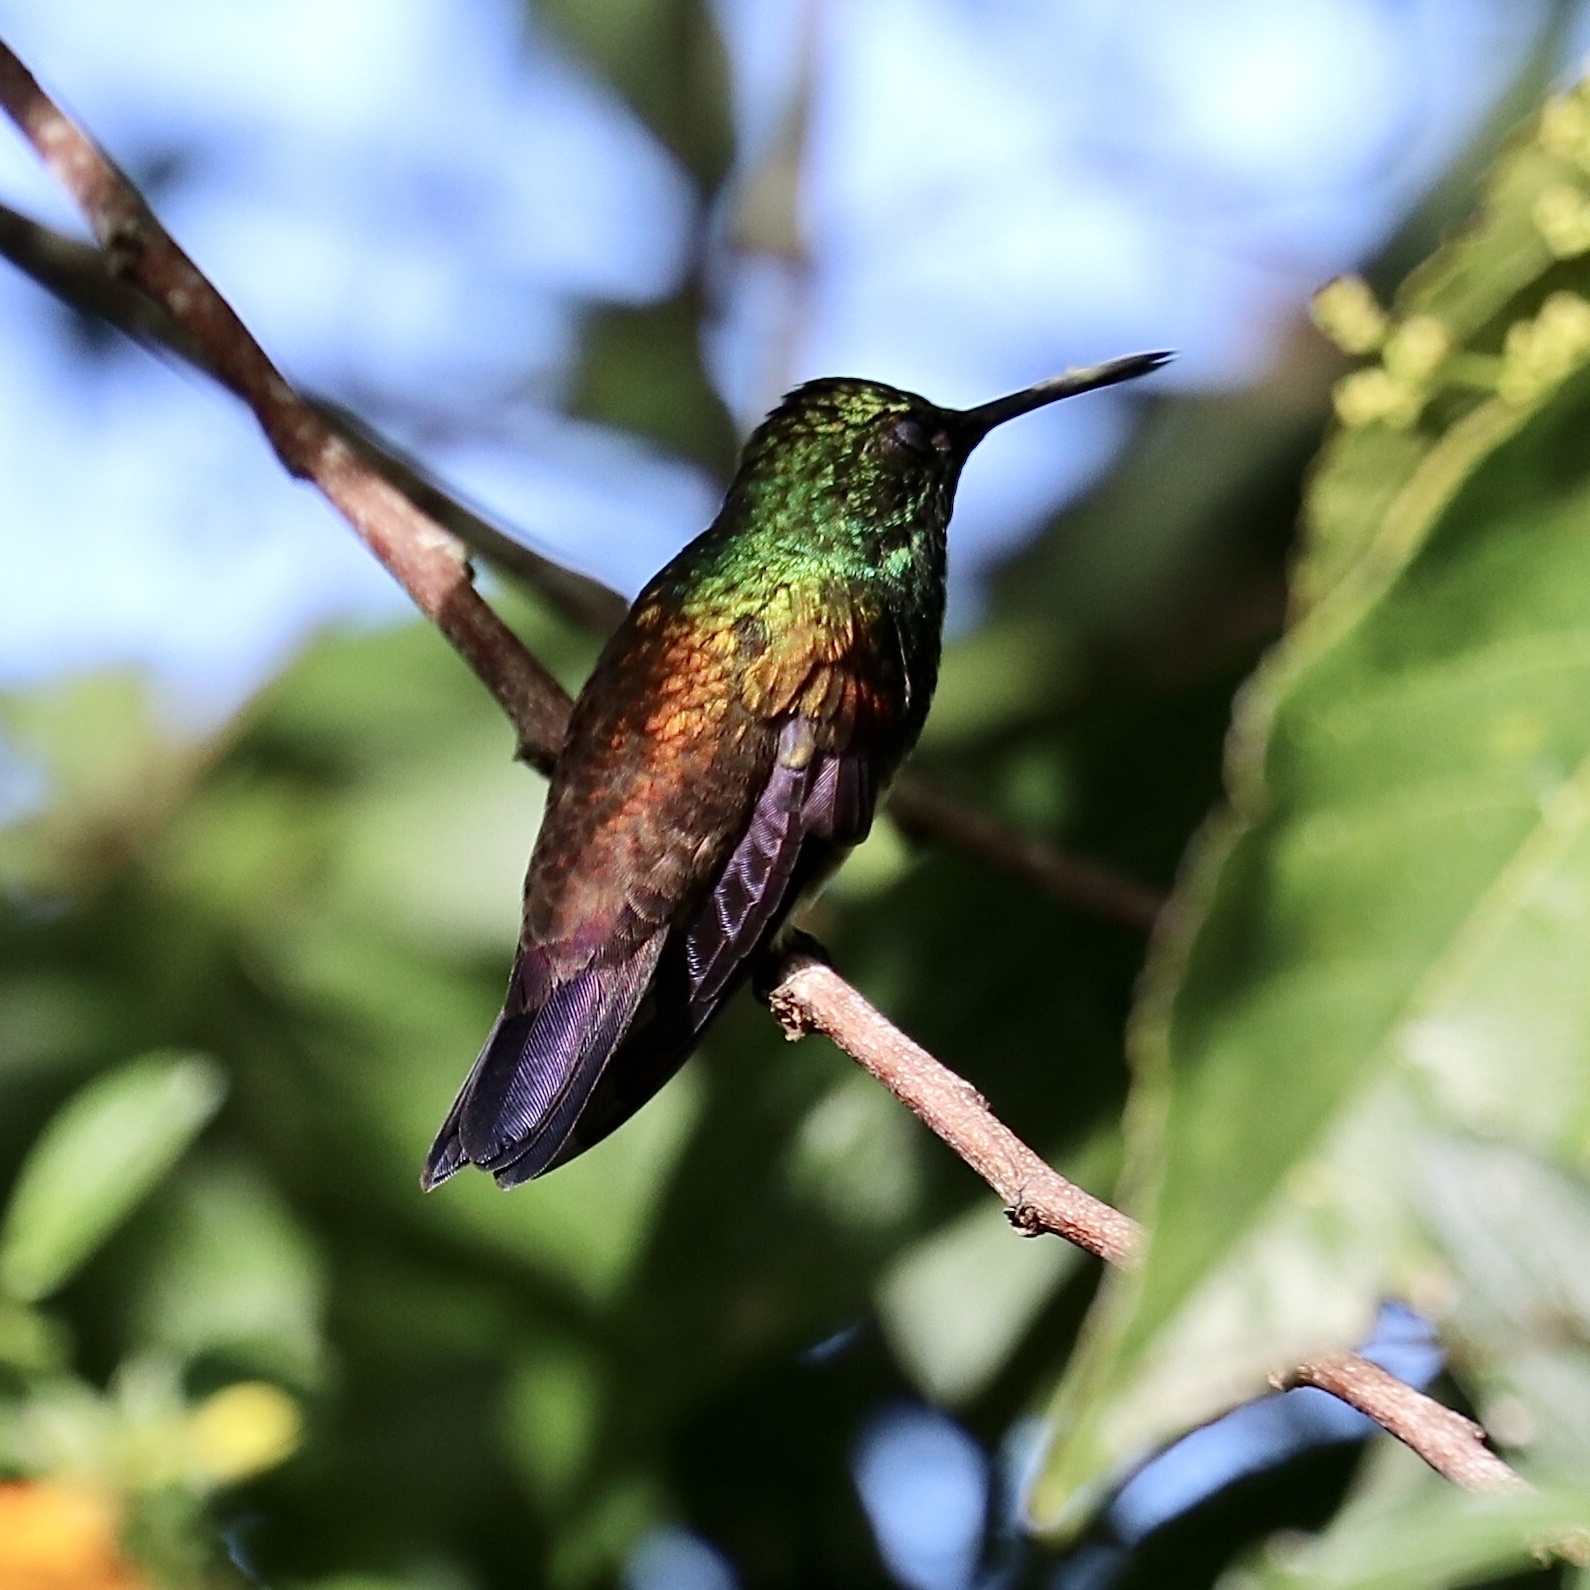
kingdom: Animalia
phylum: Chordata
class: Aves
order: Apodiformes
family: Trochilidae
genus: Saucerottia
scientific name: Saucerottia edward
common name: Snowy-bellied hummingbird
